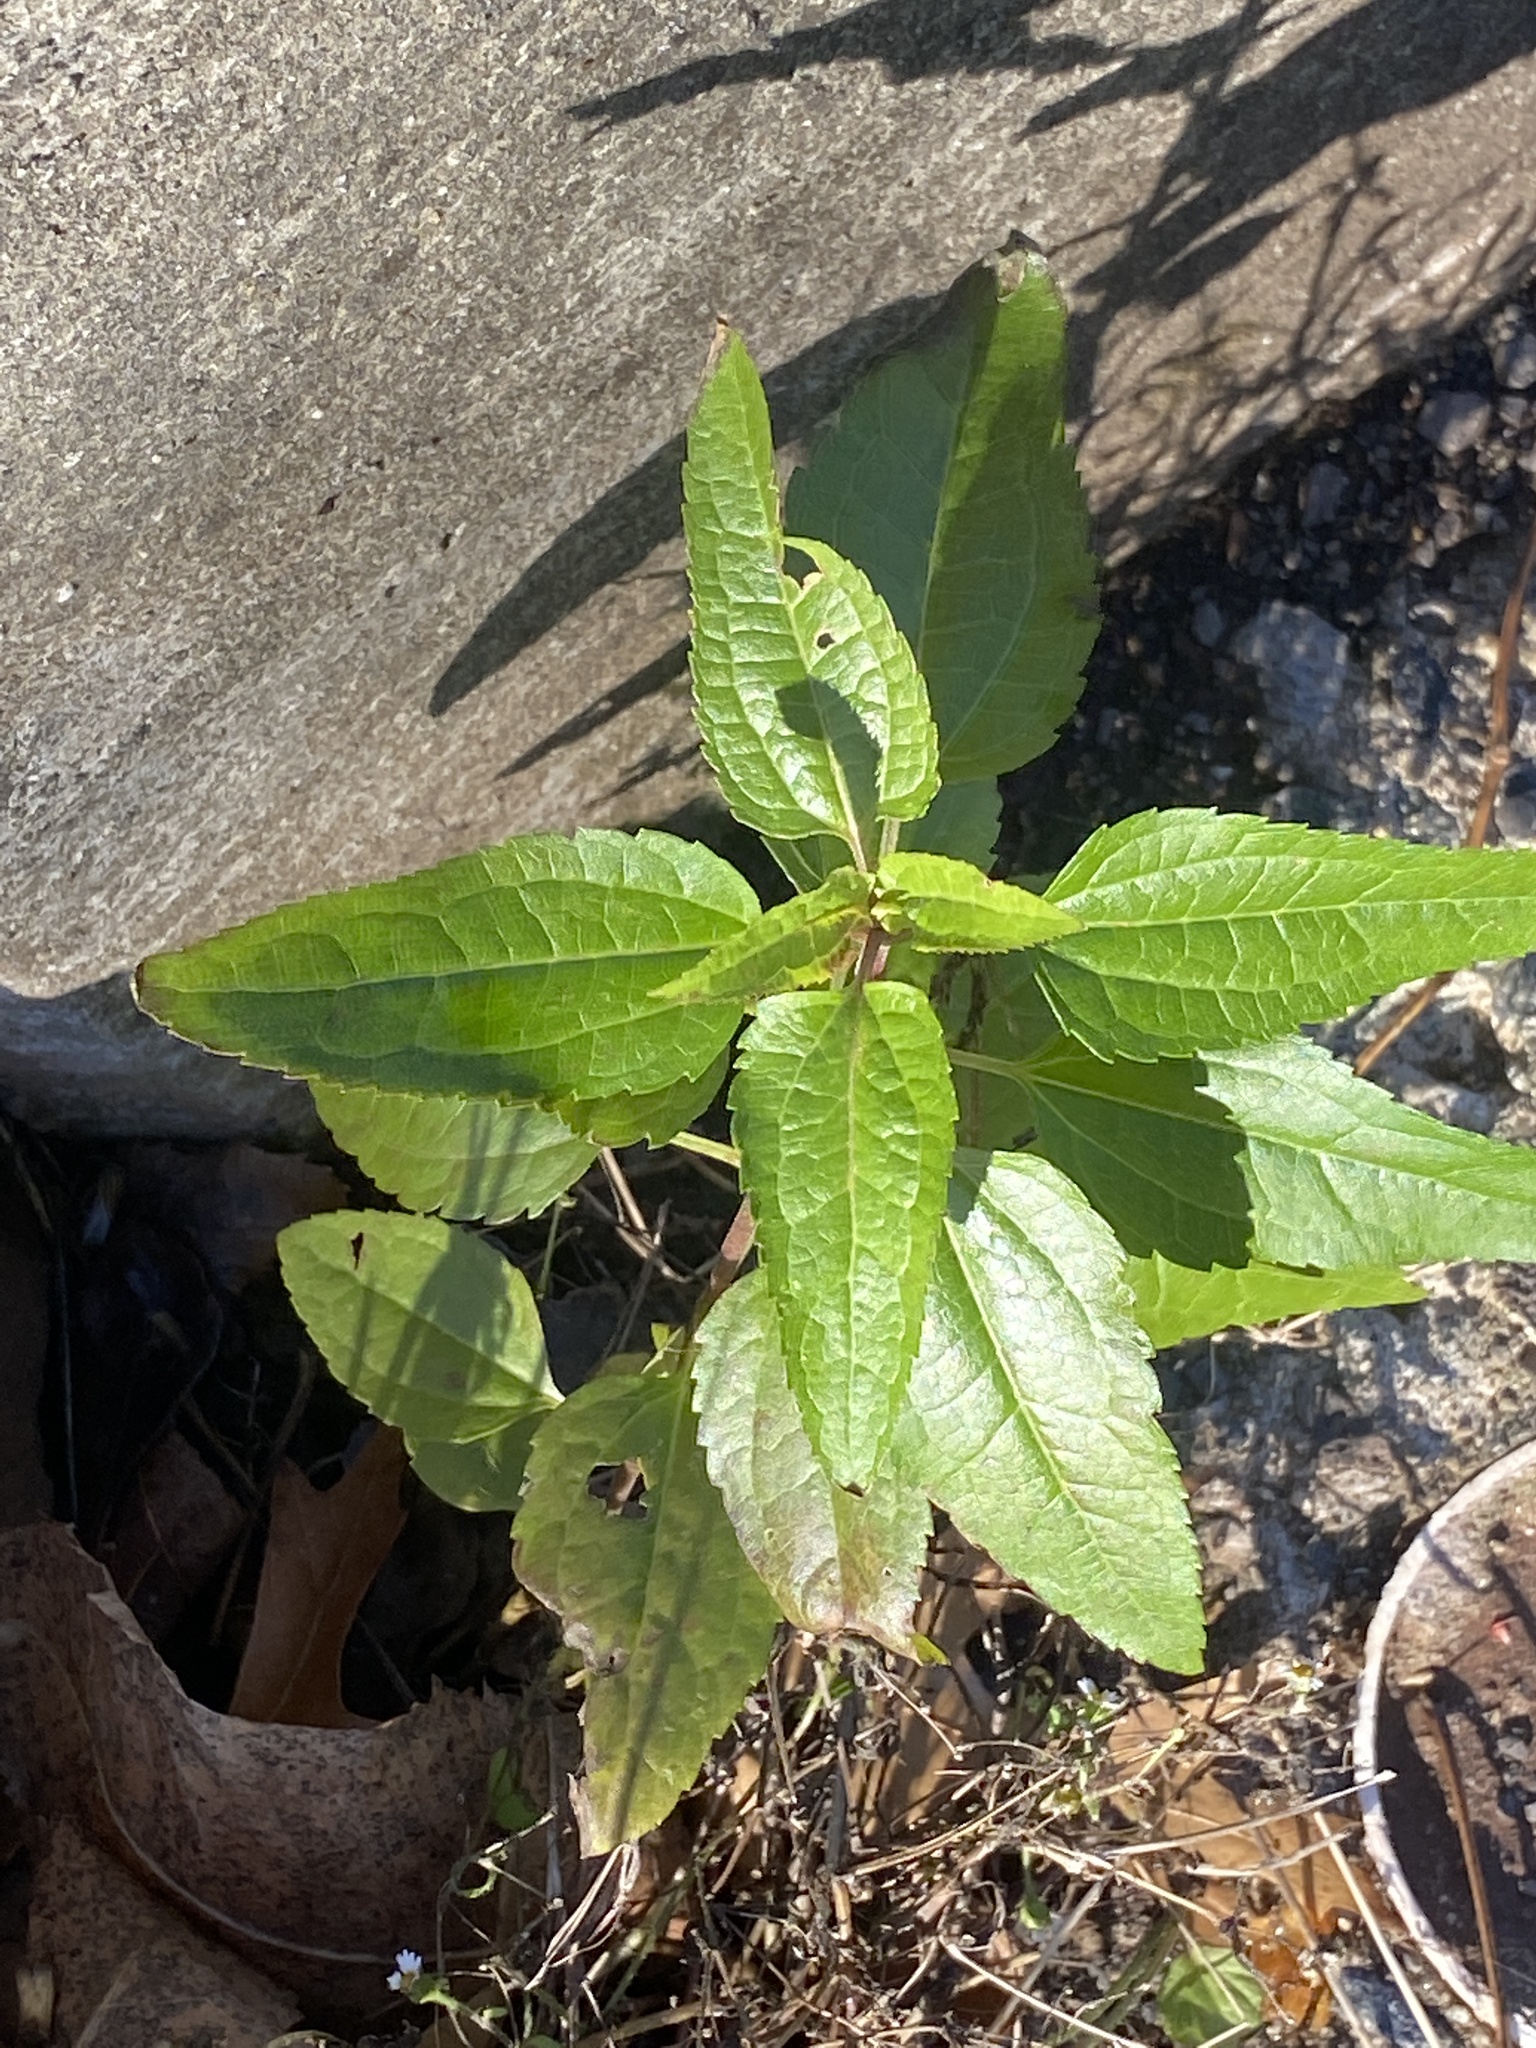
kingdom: Plantae
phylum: Tracheophyta
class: Magnoliopsida
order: Asterales
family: Asteraceae
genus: Eupatorium
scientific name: Eupatorium serotinum
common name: Late boneset
